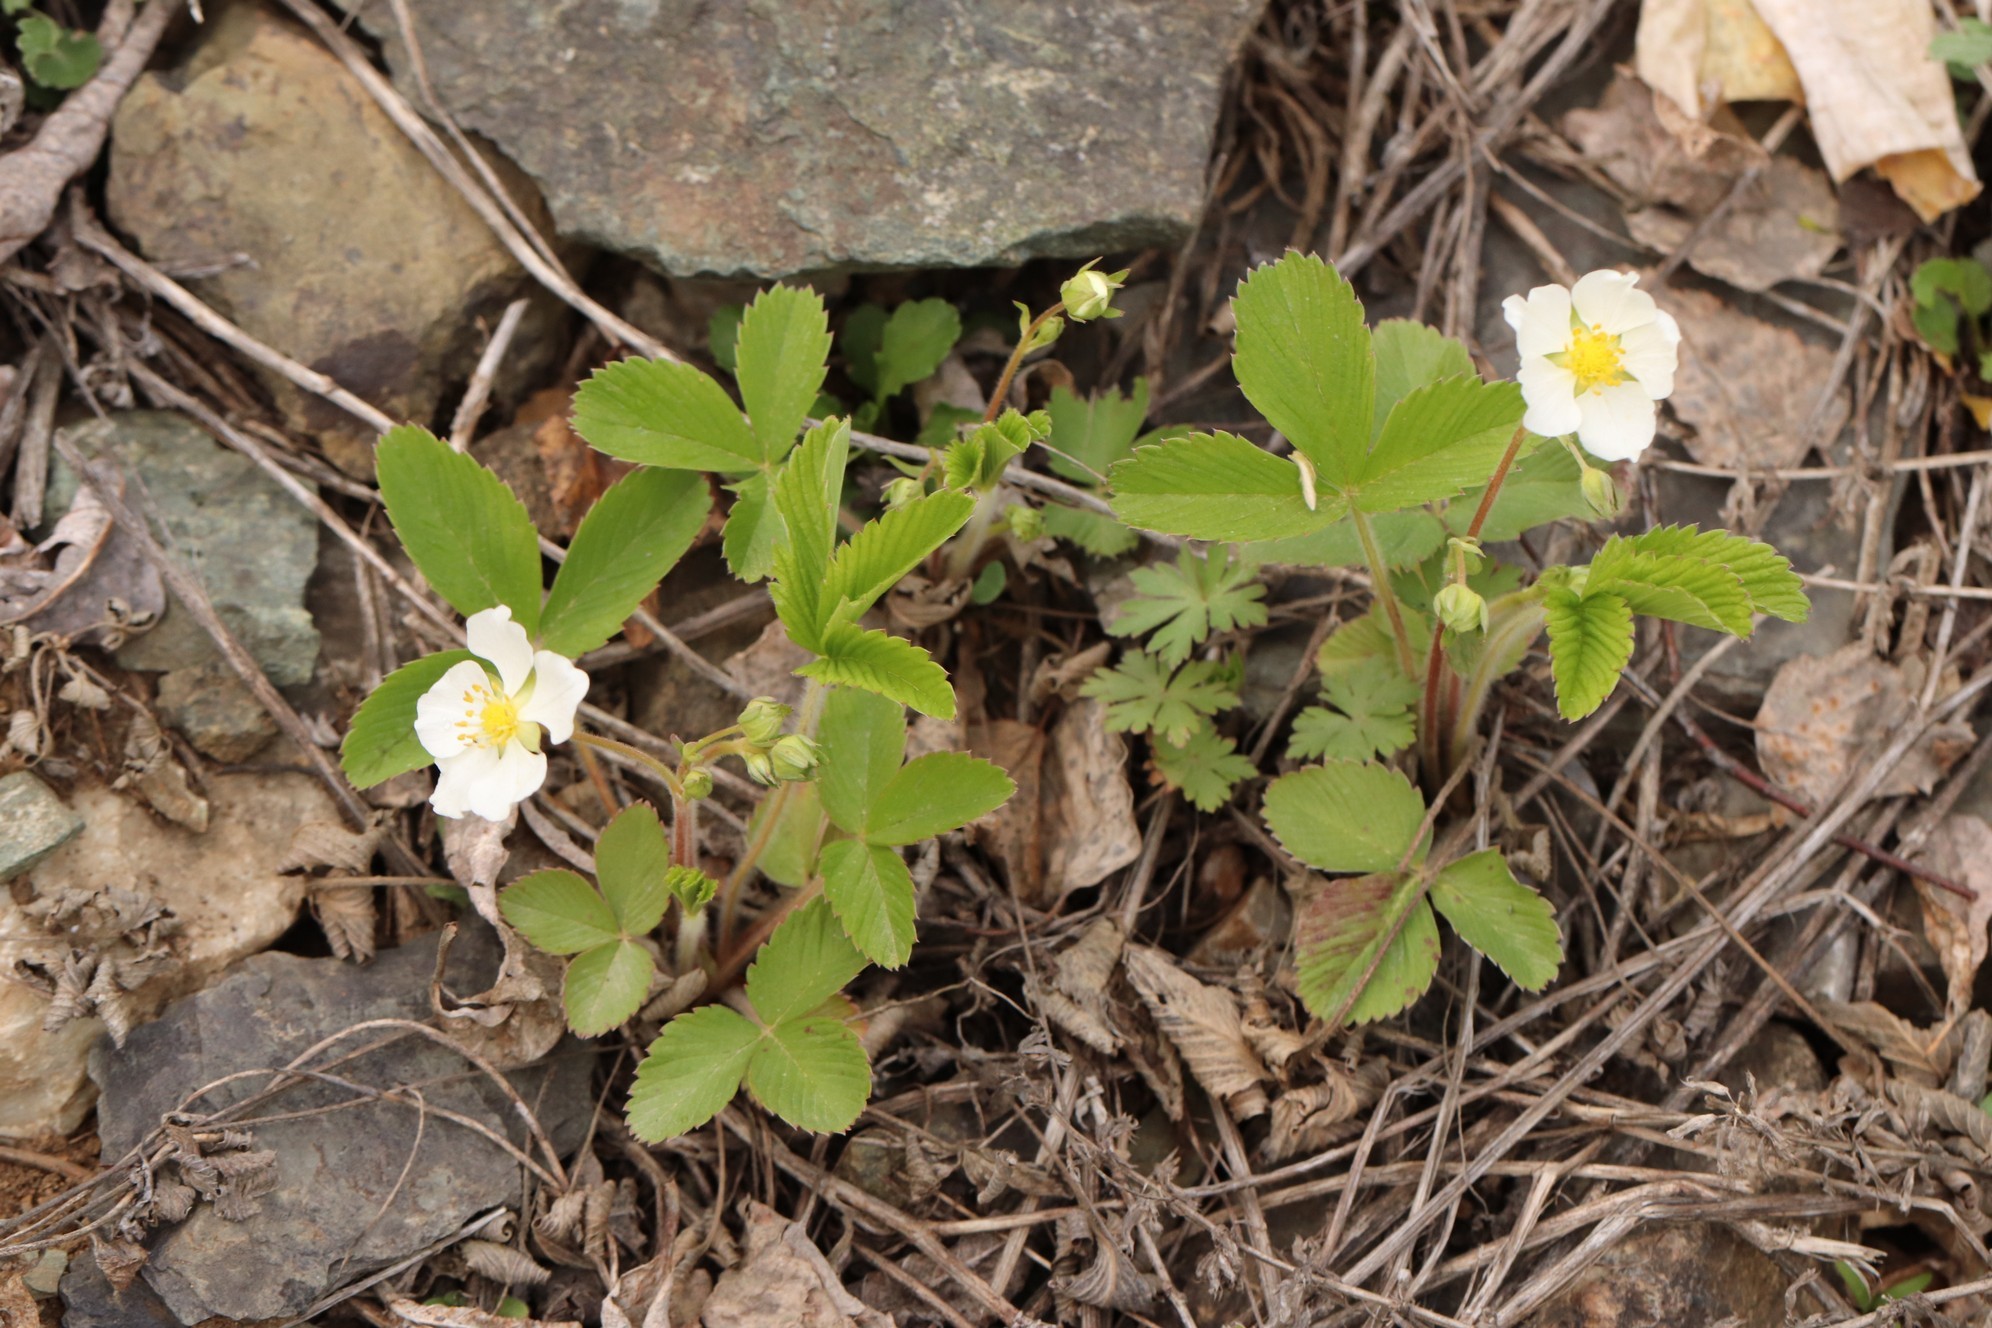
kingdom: Plantae
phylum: Tracheophyta
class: Magnoliopsida
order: Rosales
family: Rosaceae
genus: Fragaria
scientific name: Fragaria viridis
